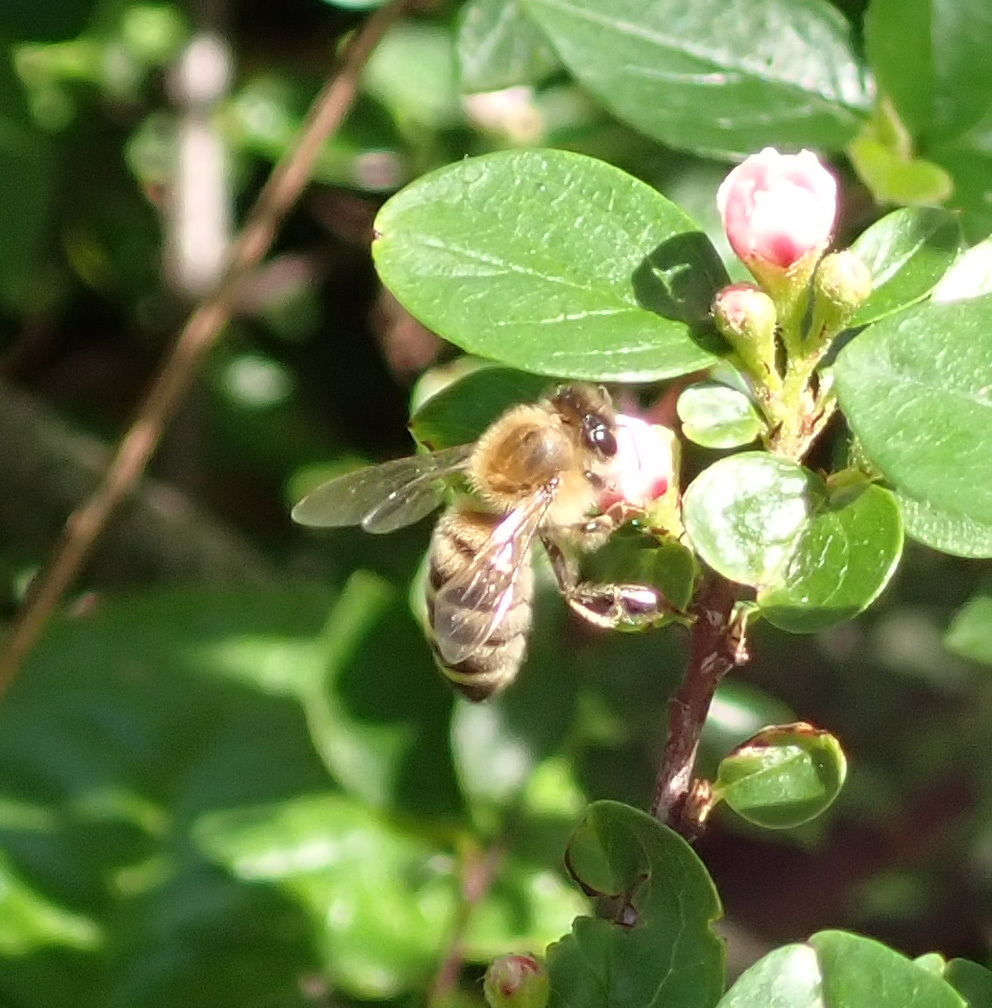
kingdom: Animalia
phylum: Arthropoda
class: Insecta
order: Hymenoptera
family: Apidae
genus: Apis
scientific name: Apis mellifera
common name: Honey bee
